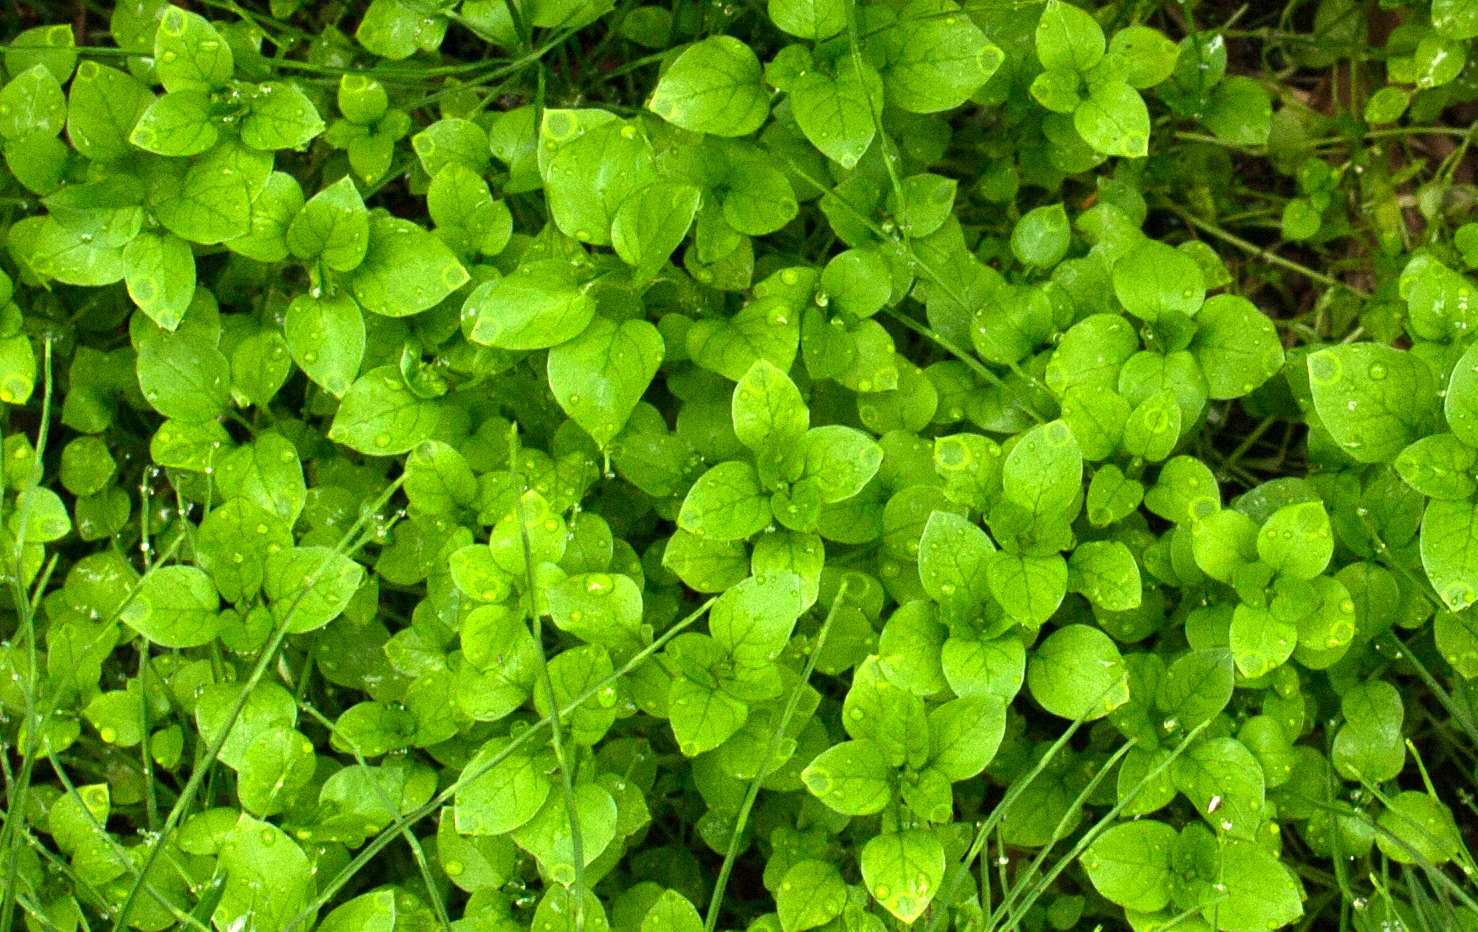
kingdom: Plantae
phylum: Tracheophyta
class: Magnoliopsida
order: Caryophyllales
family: Caryophyllaceae
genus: Stellaria
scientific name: Stellaria media
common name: Common chickweed
